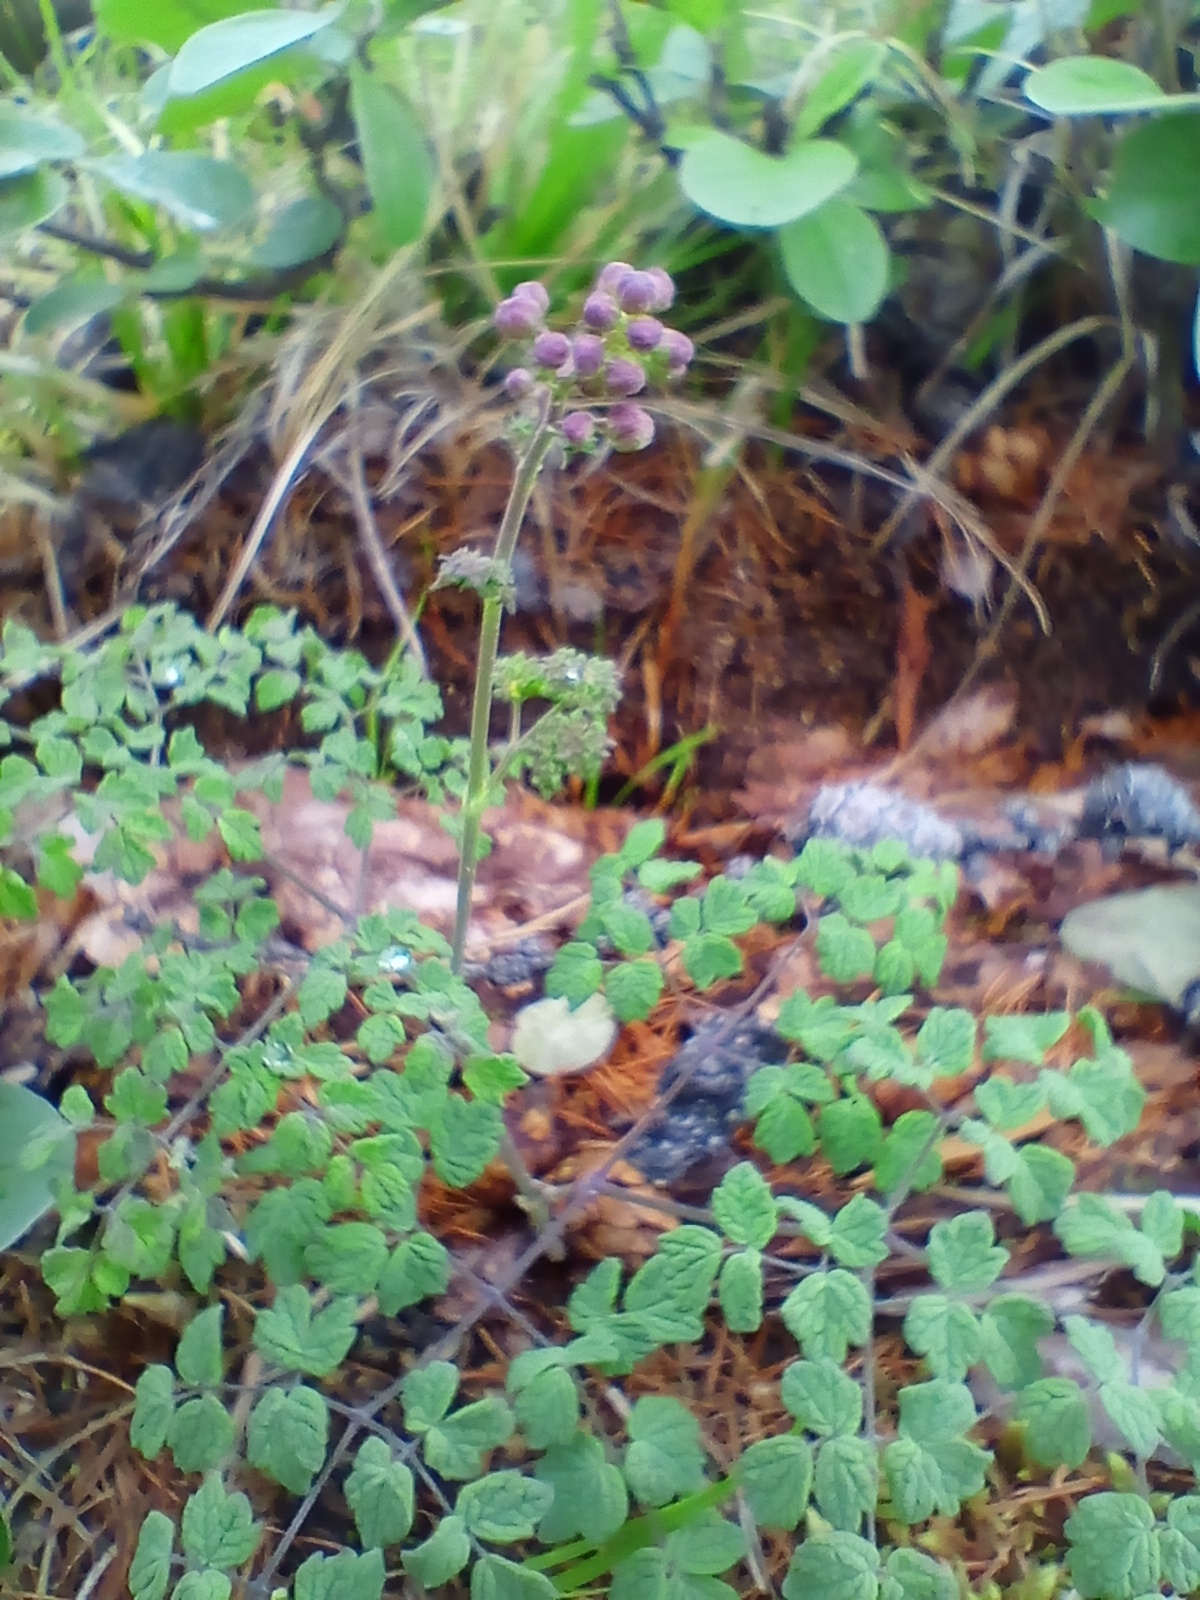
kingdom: Plantae
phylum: Tracheophyta
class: Magnoliopsida
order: Ranunculales
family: Ranunculaceae
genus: Thalictrum
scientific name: Thalictrum foetidum
